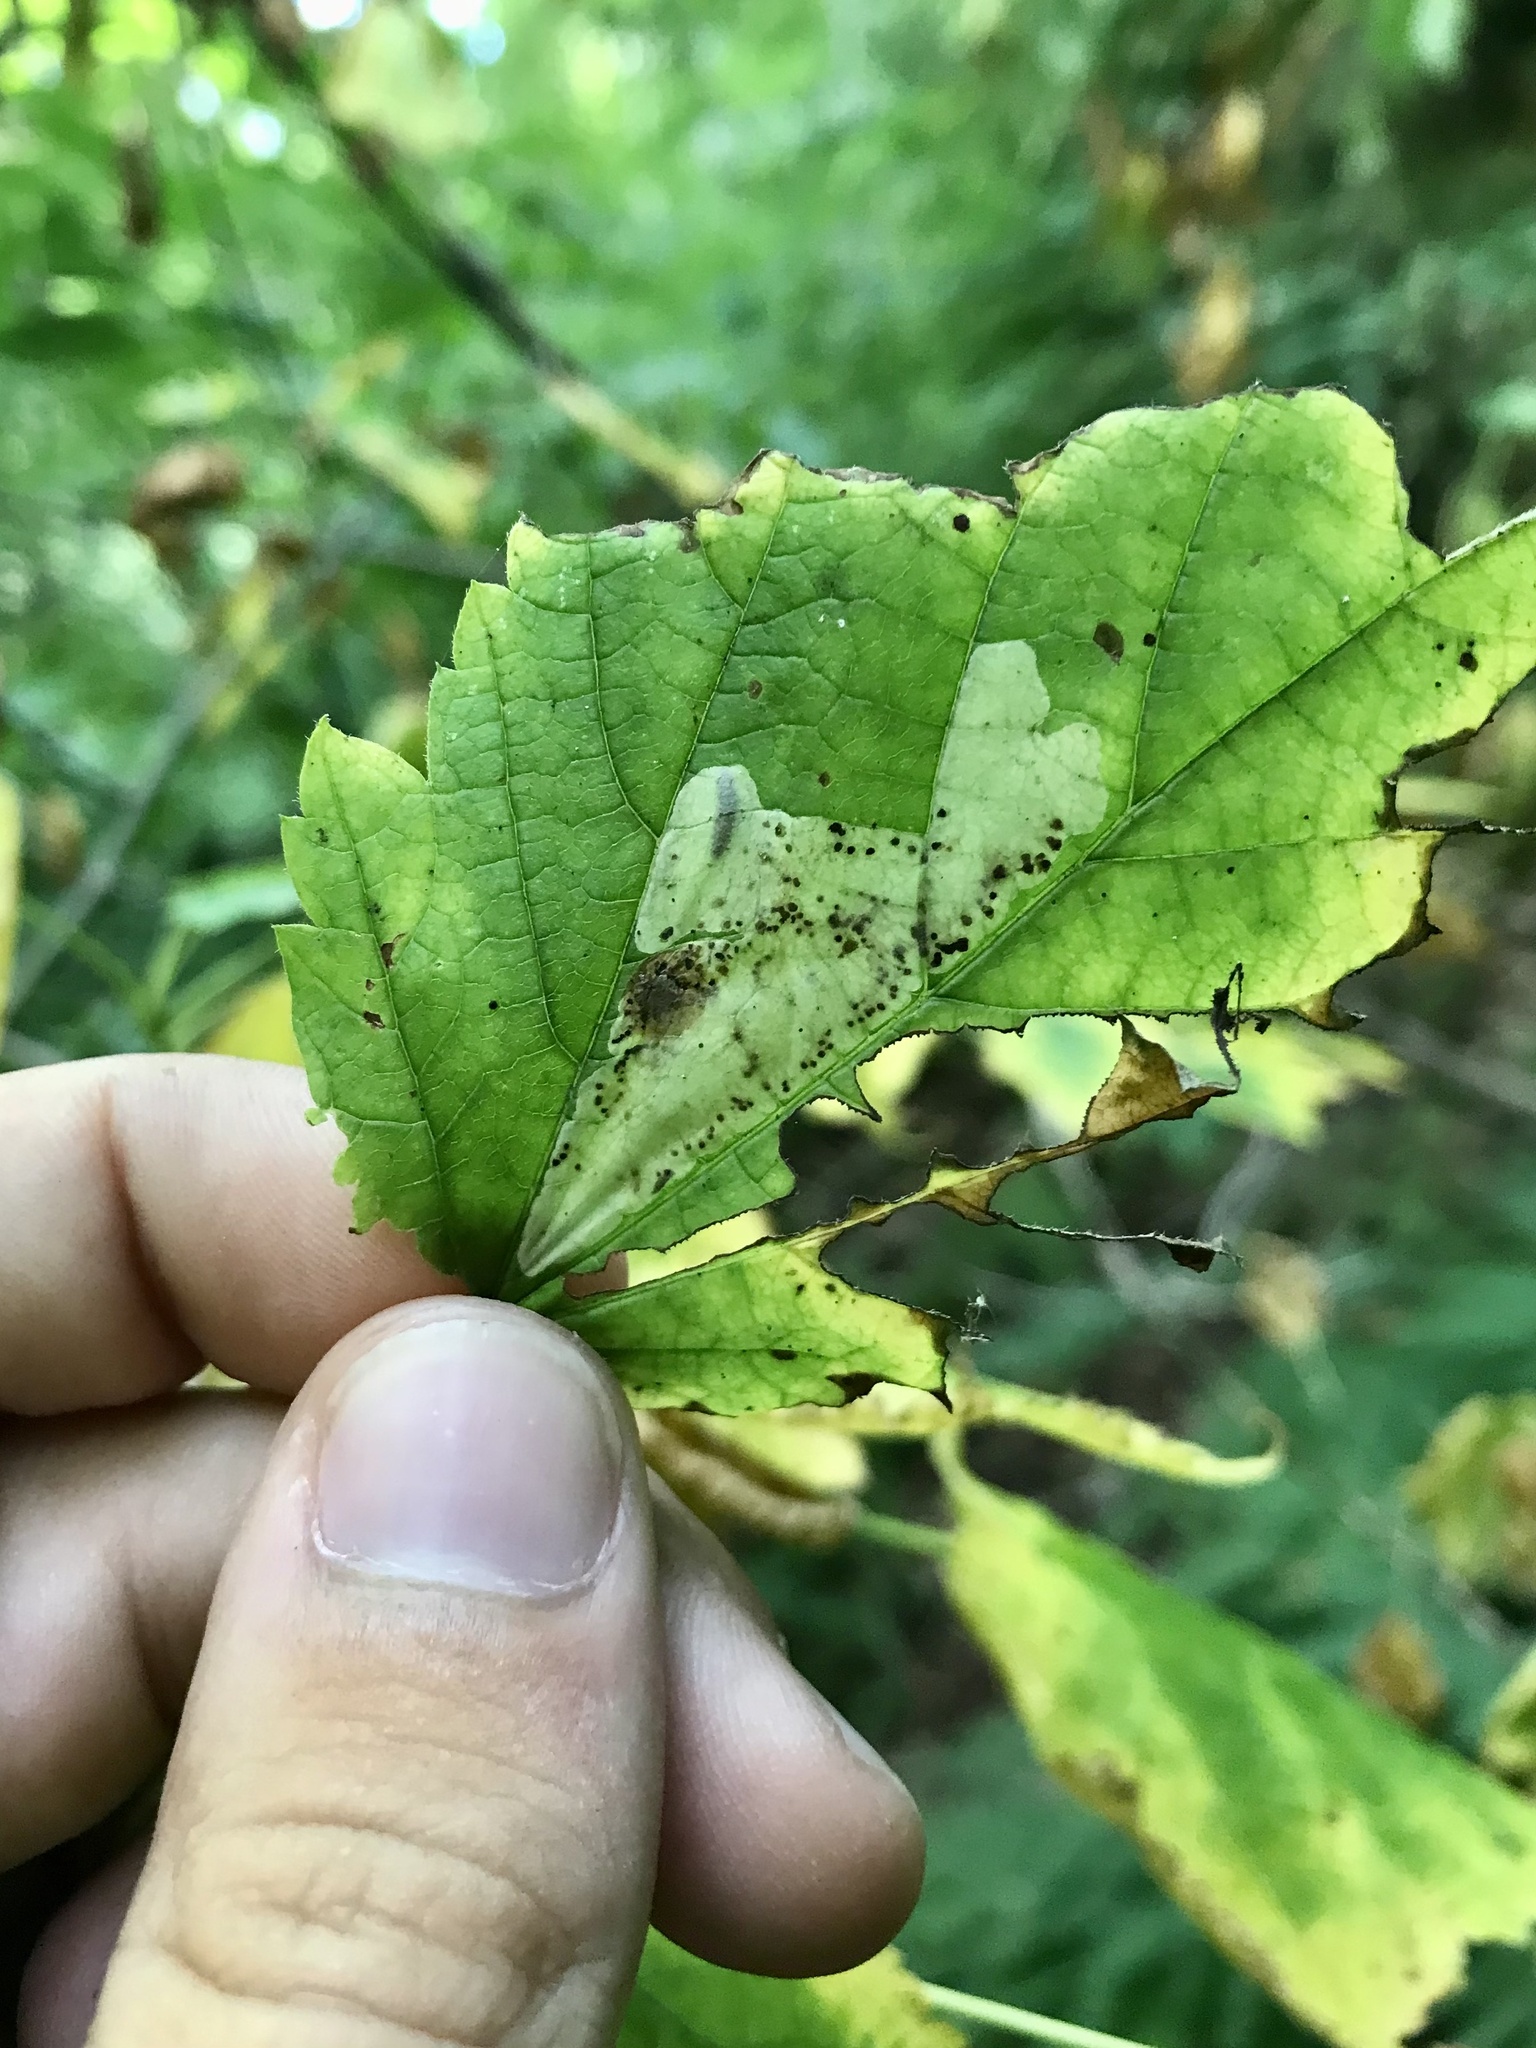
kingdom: Animalia
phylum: Arthropoda
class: Insecta
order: Lepidoptera
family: Gracillariidae
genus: Cameraria
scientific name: Cameraria aceriella
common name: Maple leafblotch miner
